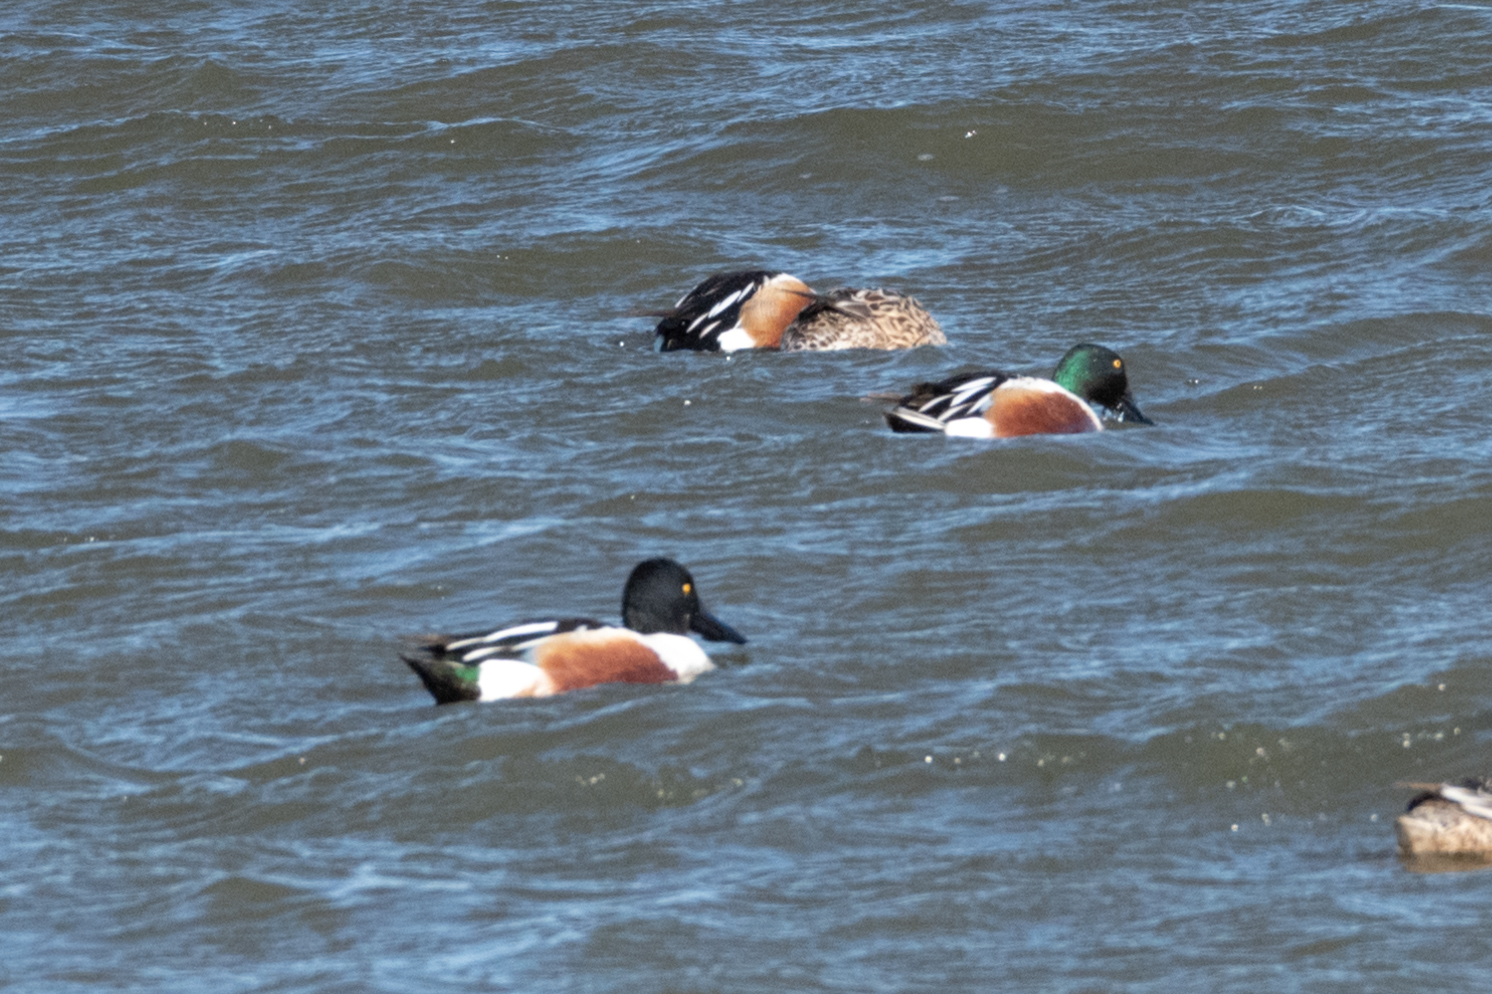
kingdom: Animalia
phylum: Chordata
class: Aves
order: Anseriformes
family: Anatidae
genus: Spatula
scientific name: Spatula clypeata
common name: Northern shoveler
